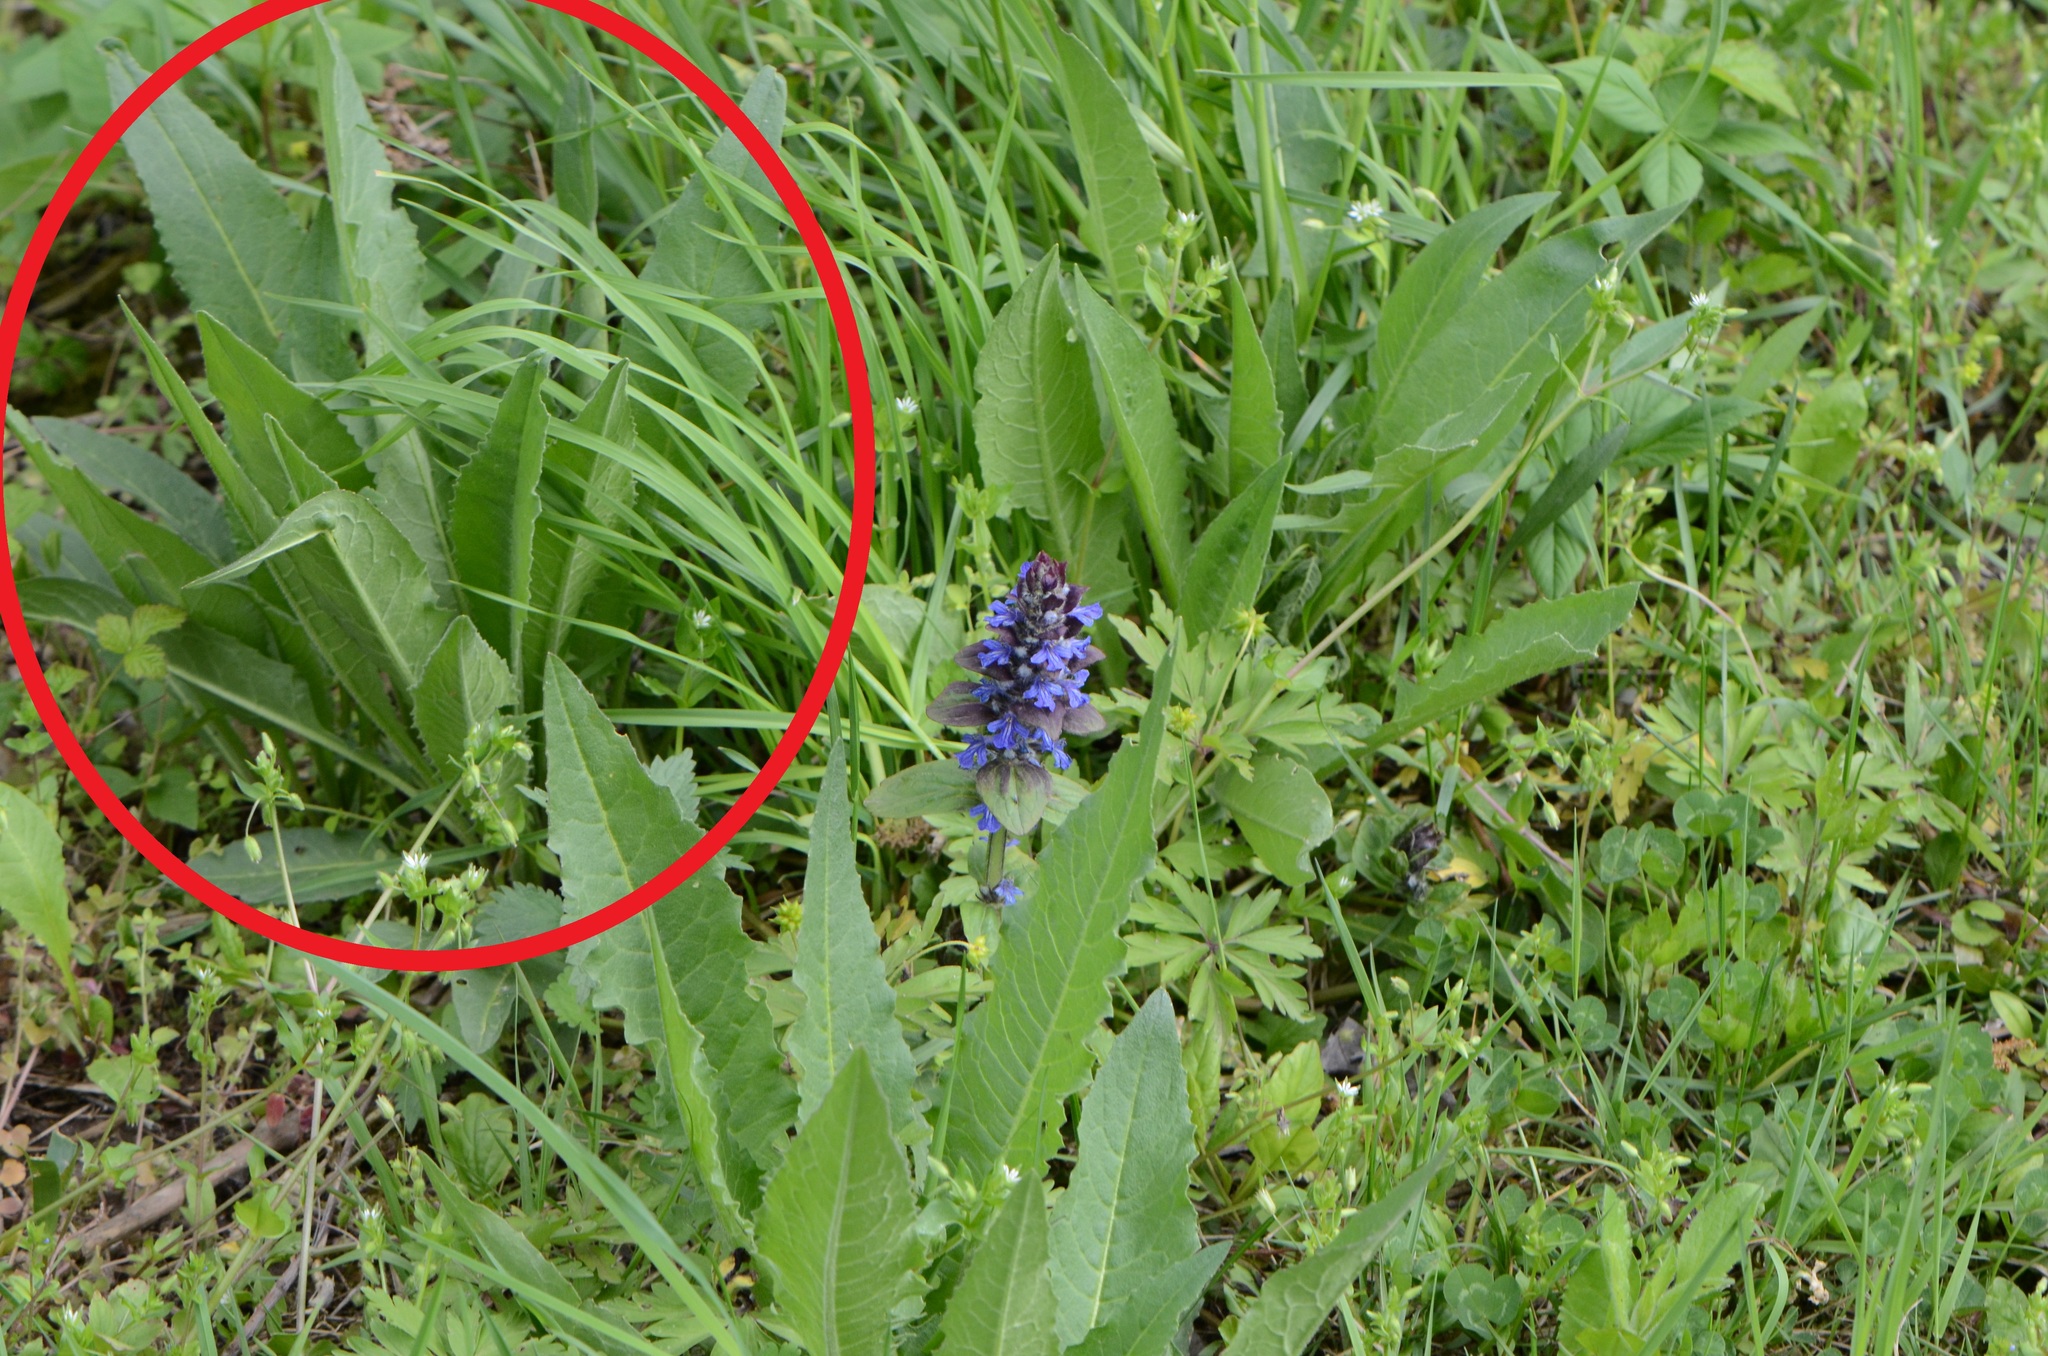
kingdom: Plantae
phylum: Tracheophyta
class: Magnoliopsida
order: Brassicales
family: Brassicaceae
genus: Bunias
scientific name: Bunias orientalis
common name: Warty-cabbage
